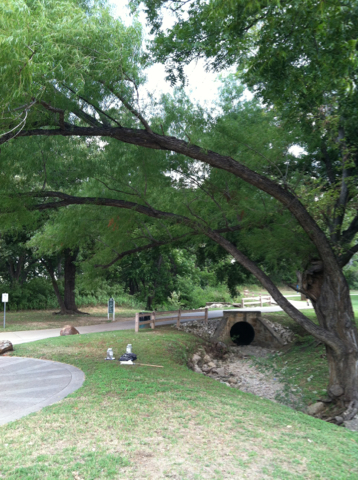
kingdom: Plantae
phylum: Tracheophyta
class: Magnoliopsida
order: Malpighiales
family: Salicaceae
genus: Salix
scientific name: Salix nigra
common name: Black willow
